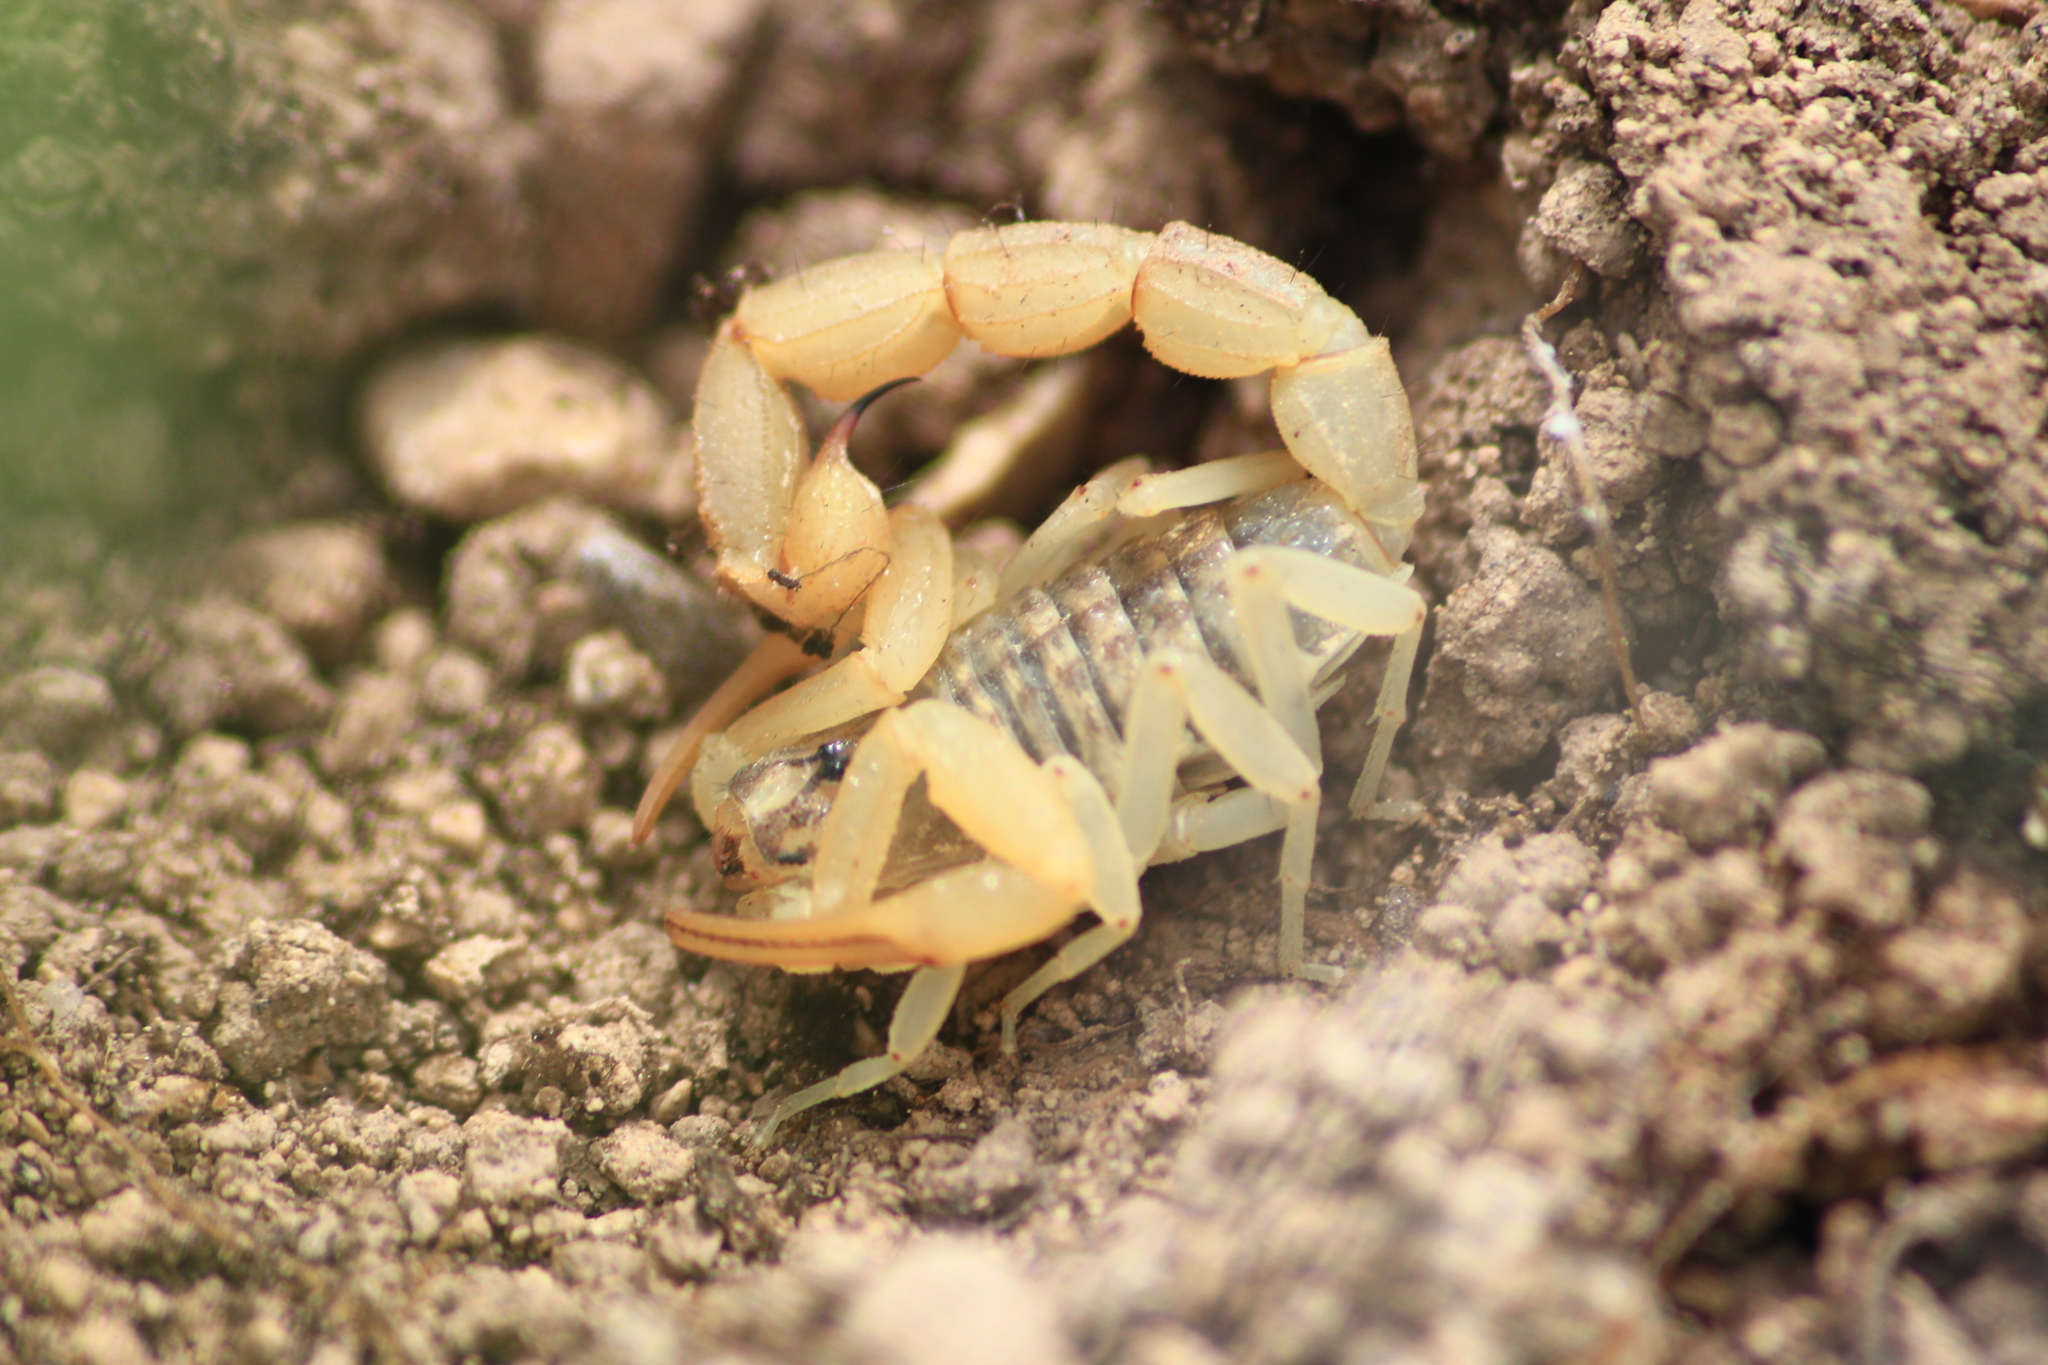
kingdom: Animalia
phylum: Arthropoda
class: Arachnida
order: Scorpiones
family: Buthidae
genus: Aegaeobuthus
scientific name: Aegaeobuthus cyprius
